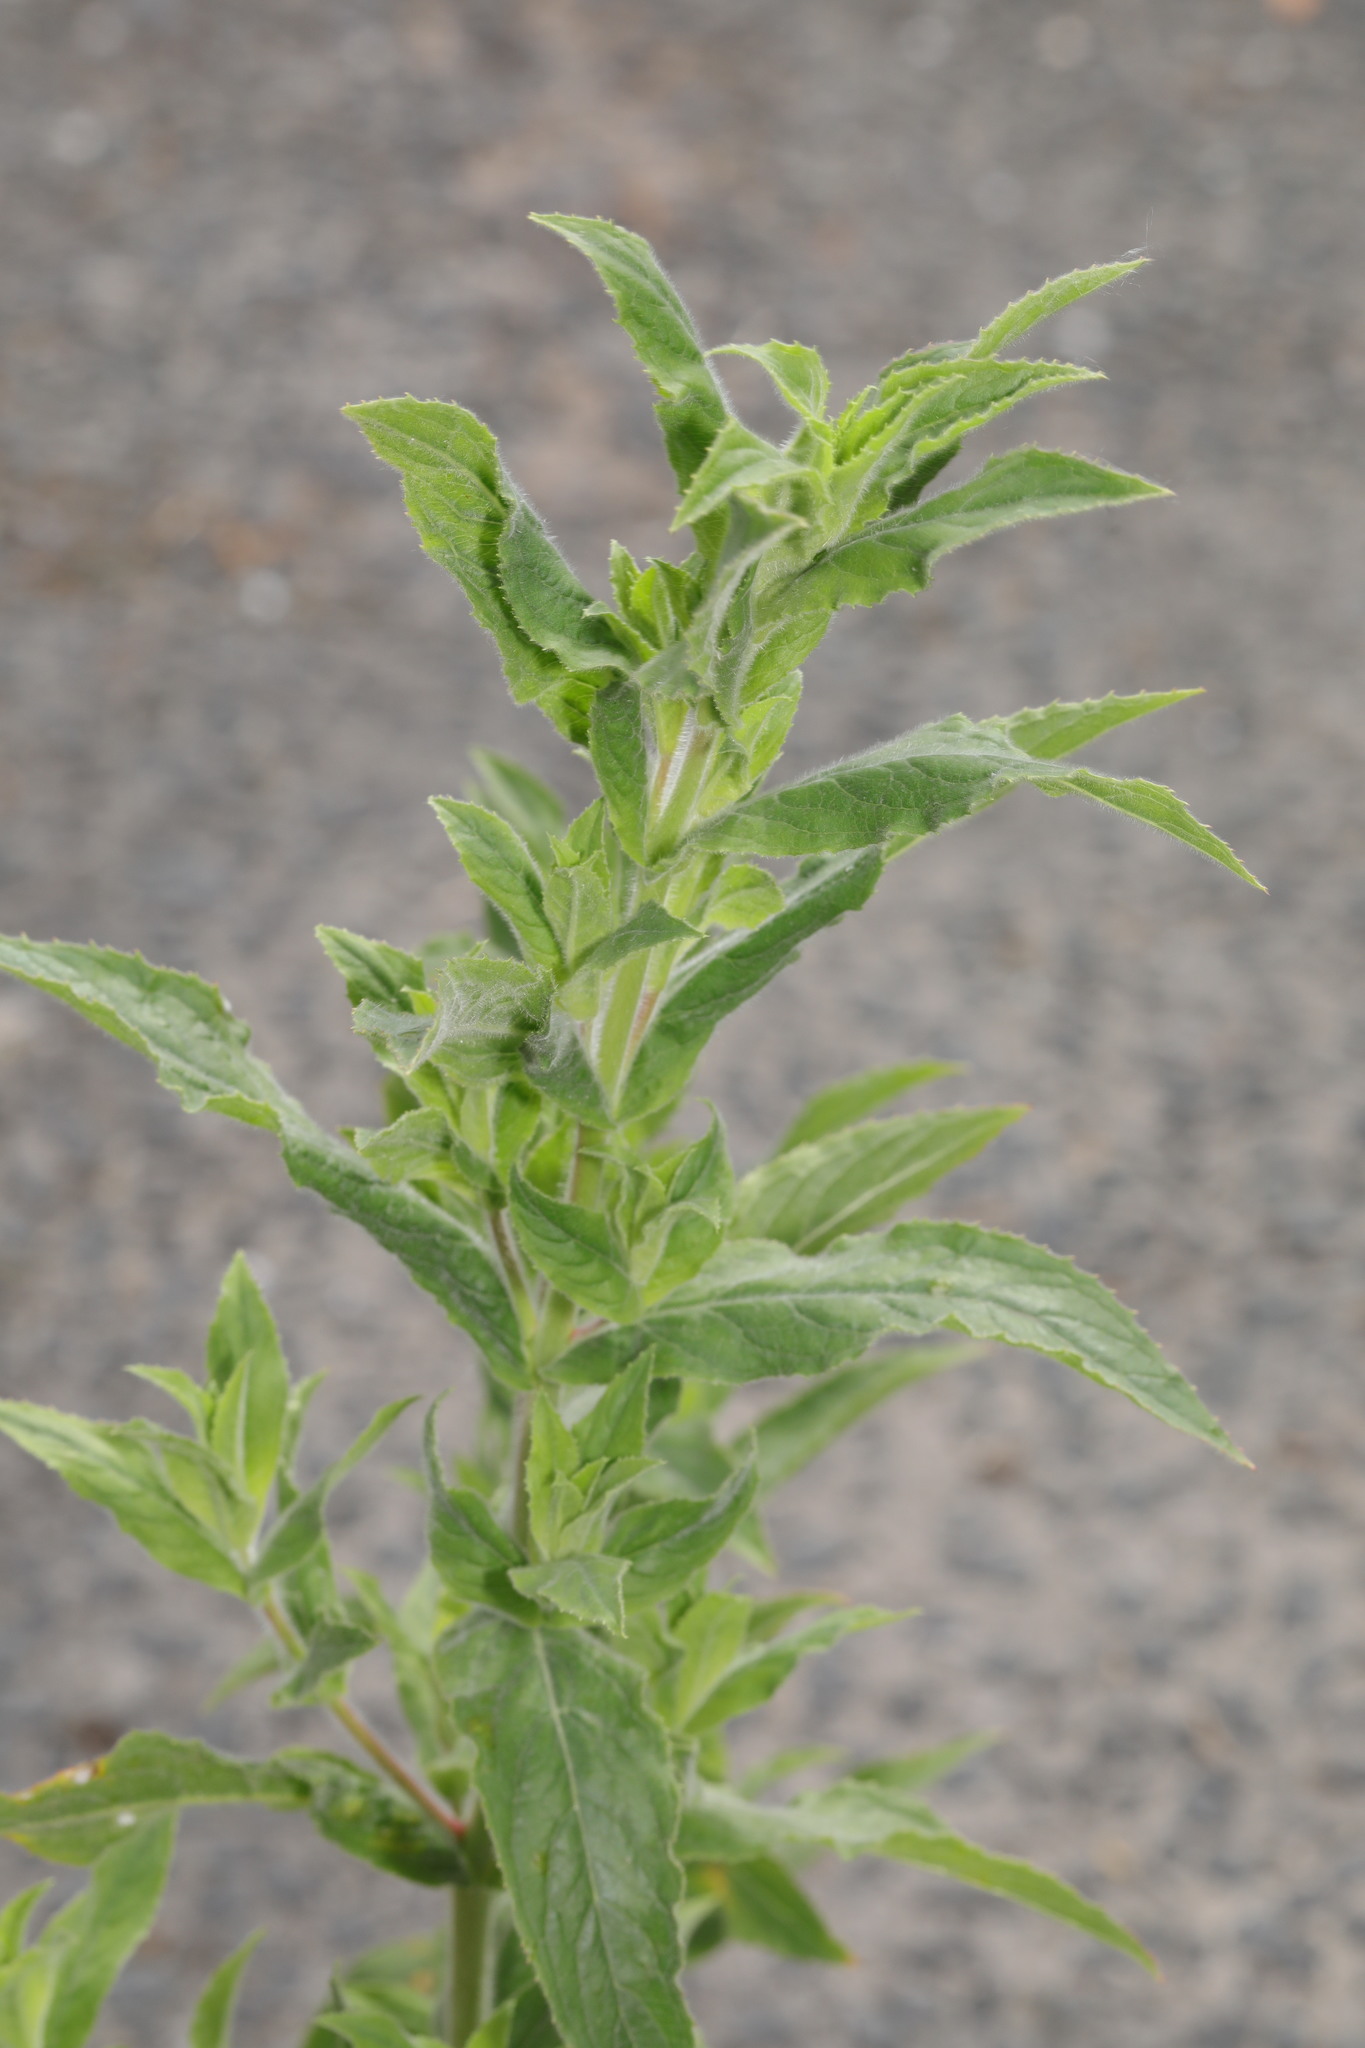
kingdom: Plantae
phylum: Tracheophyta
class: Magnoliopsida
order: Myrtales
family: Onagraceae
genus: Epilobium
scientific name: Epilobium hirsutum
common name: Great willowherb
